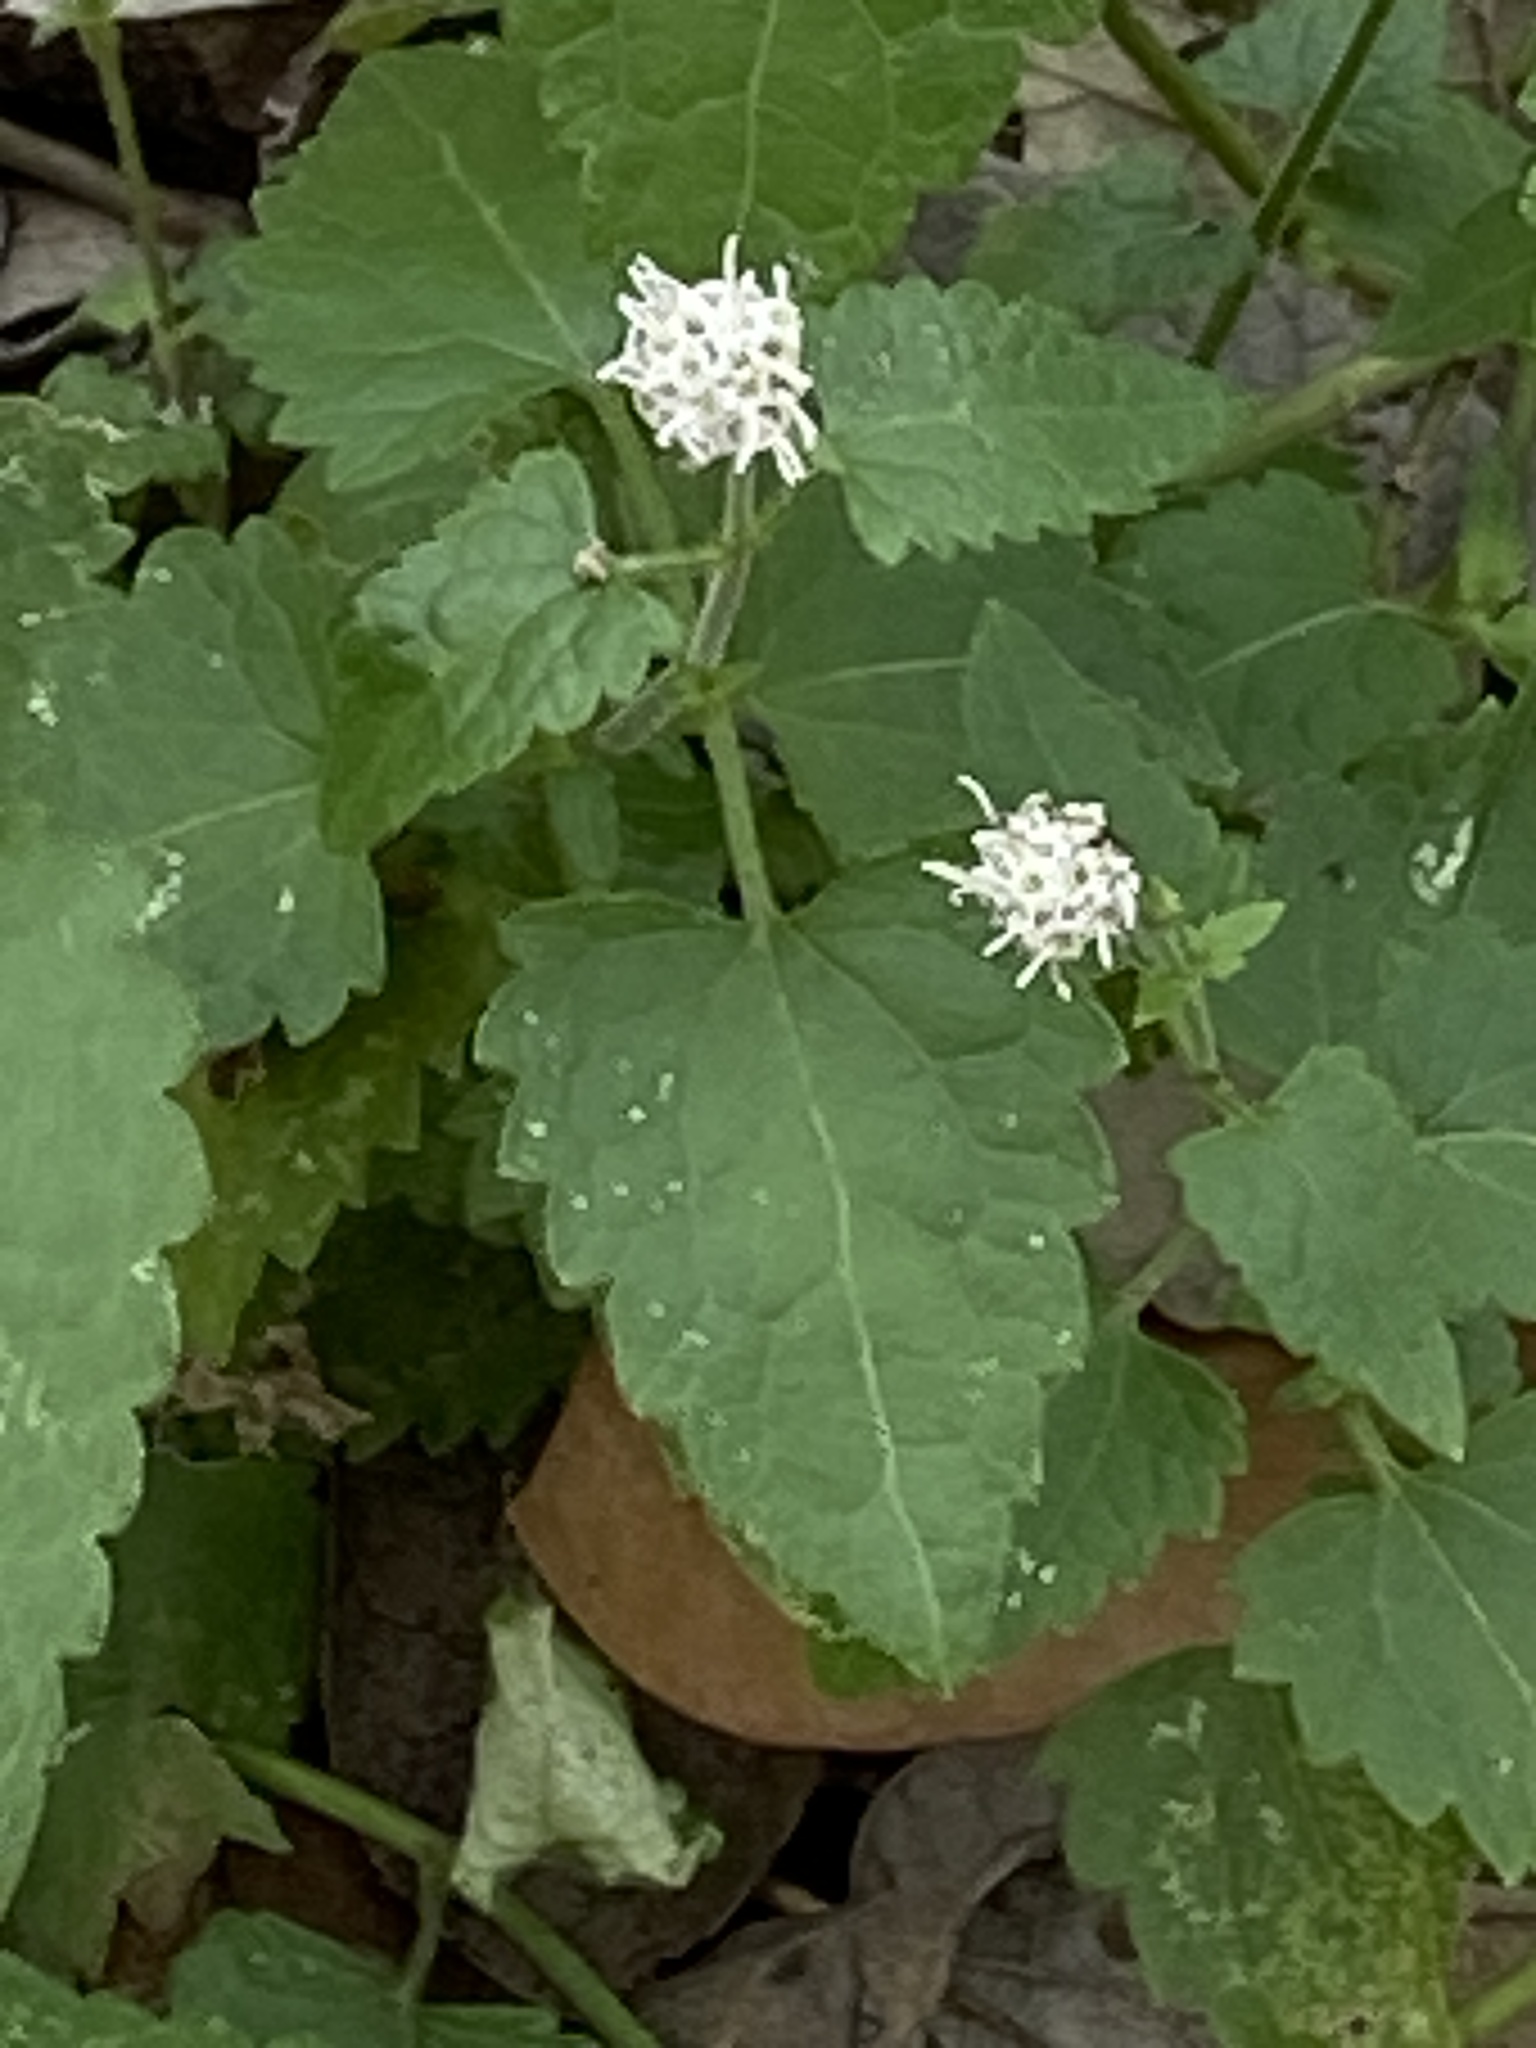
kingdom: Plantae
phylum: Tracheophyta
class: Magnoliopsida
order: Asterales
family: Asteraceae
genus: Fleischmannia
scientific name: Fleischmannia incarnata
